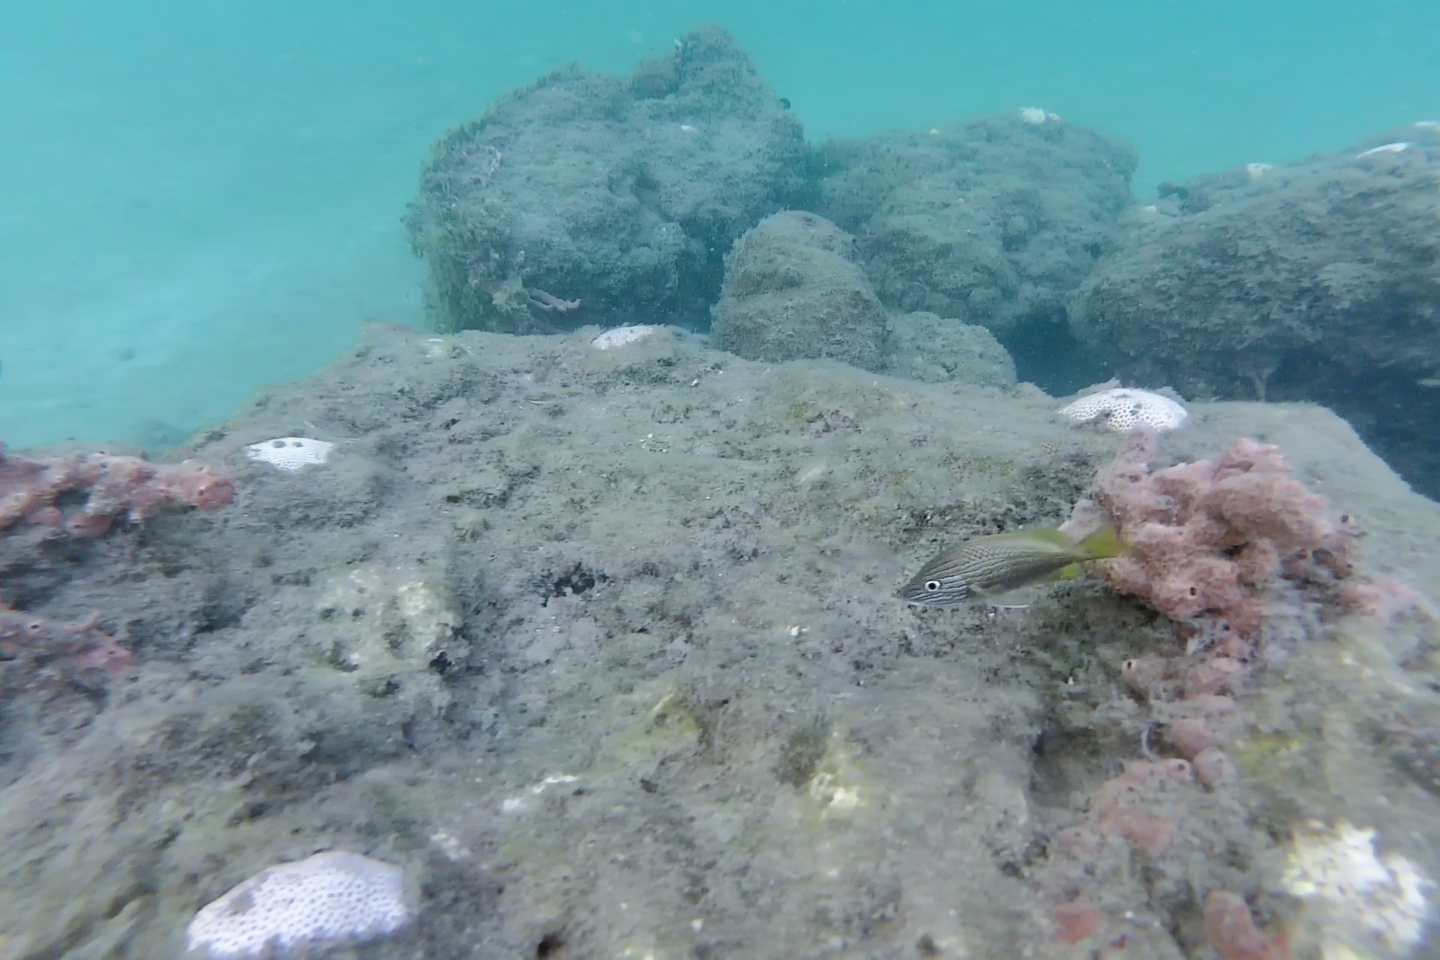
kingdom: Animalia
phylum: Chordata
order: Perciformes
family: Haemulidae
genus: Haemulon
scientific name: Haemulon plumierii
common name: White grunt
